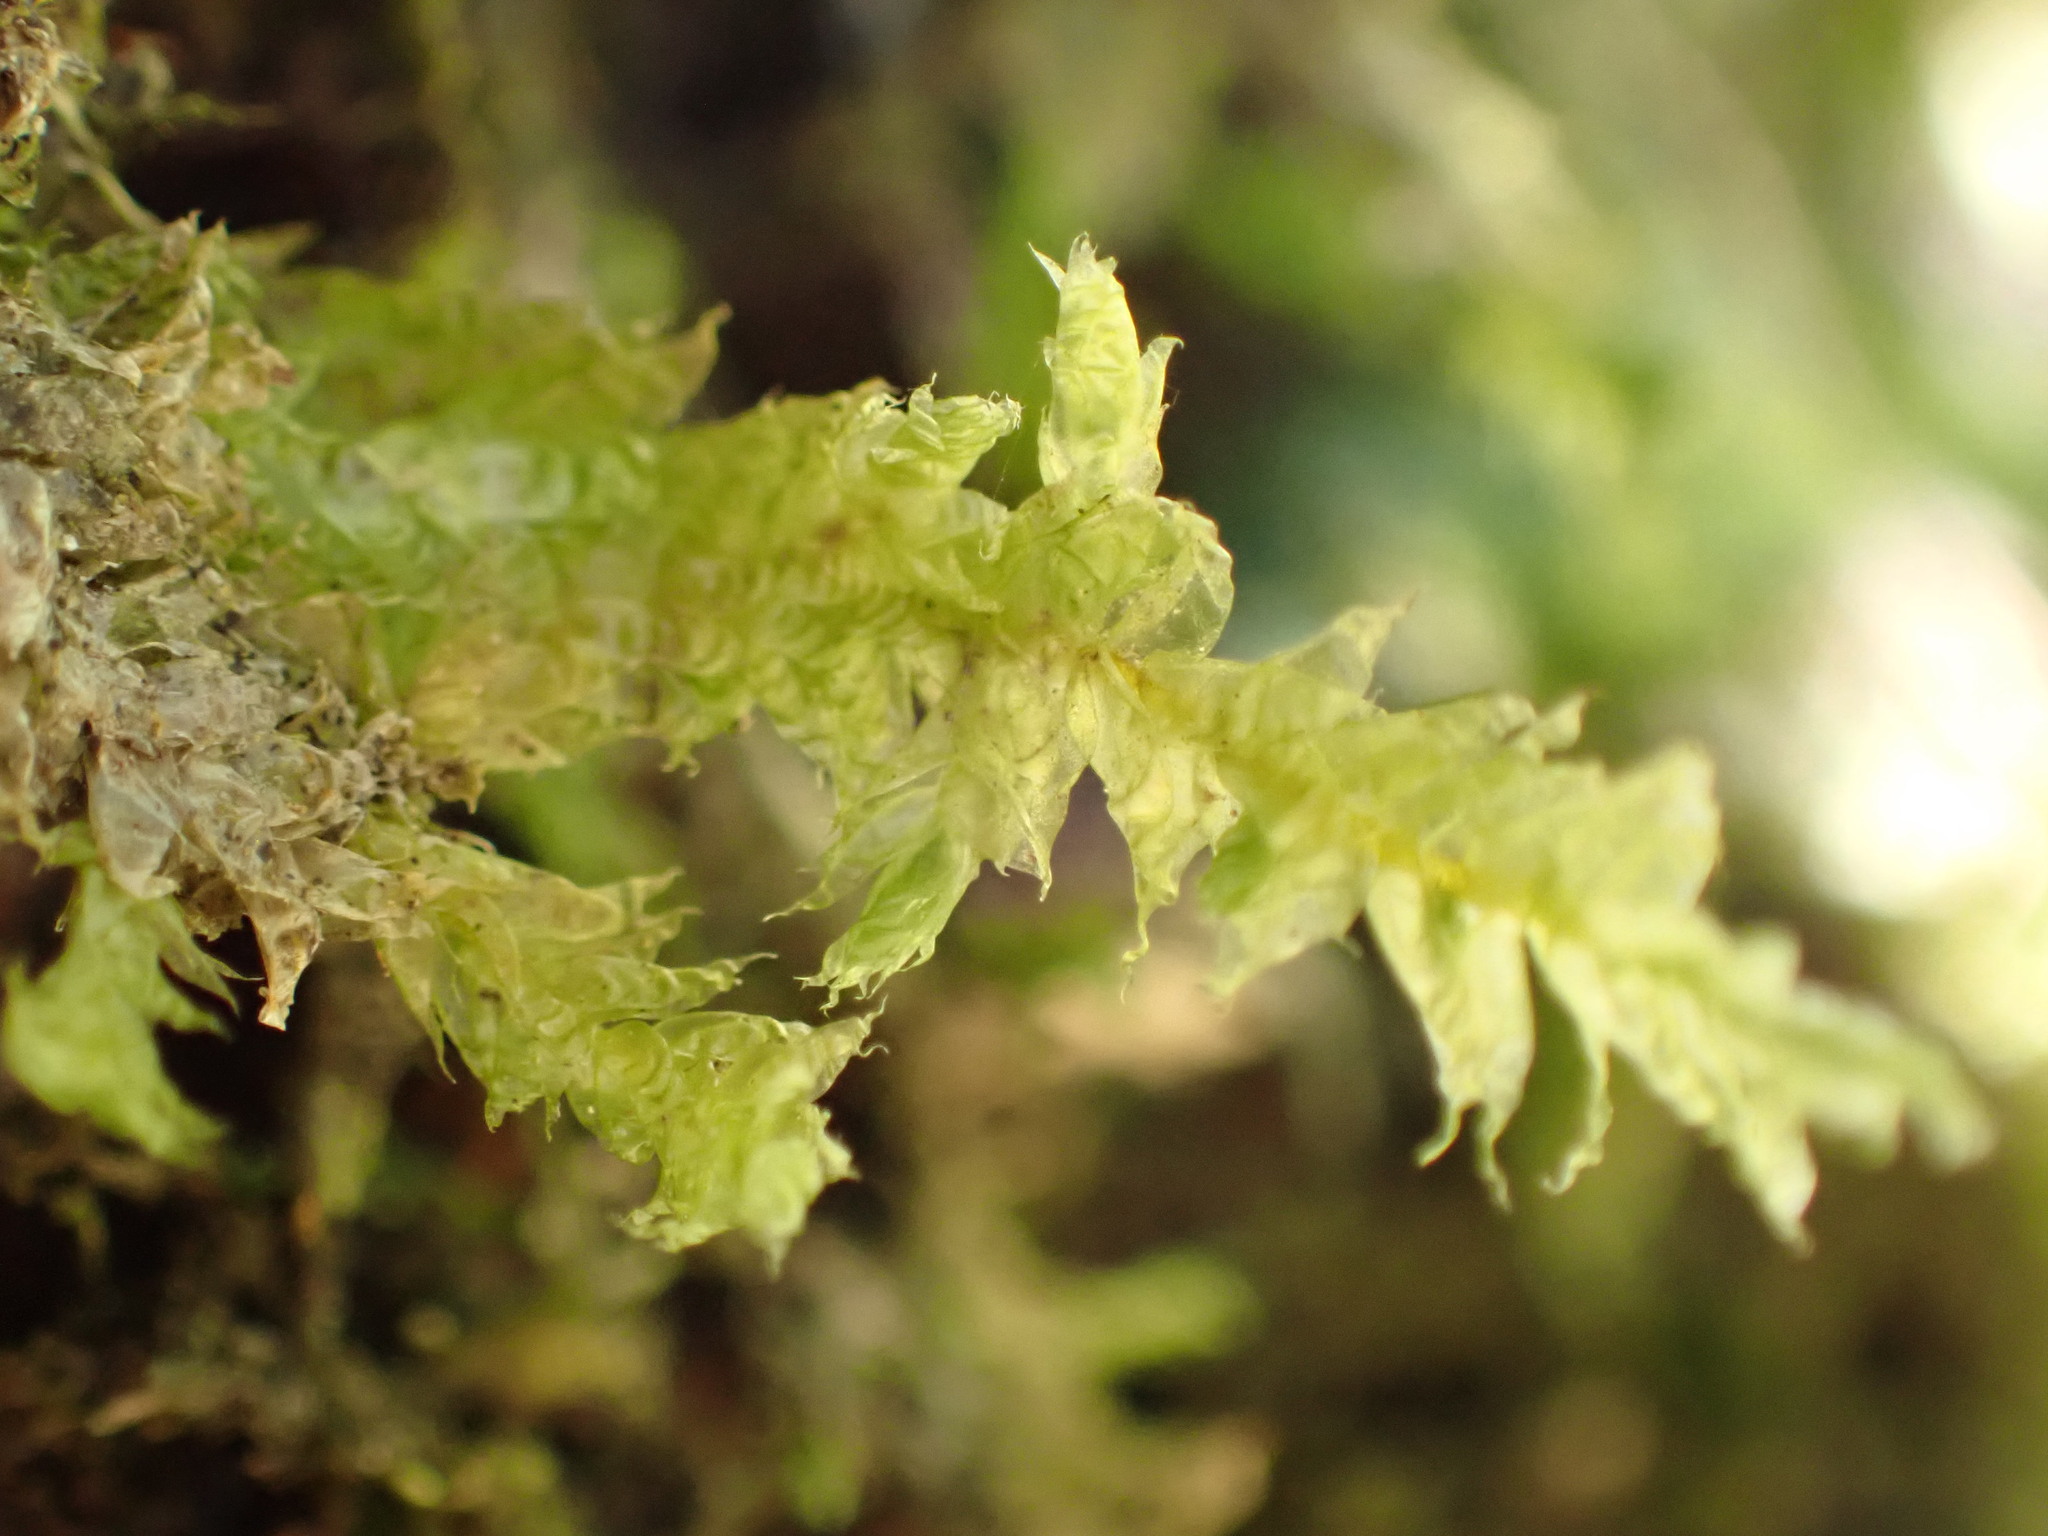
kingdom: Plantae
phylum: Bryophyta
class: Bryopsida
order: Hypnales
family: Neckeraceae
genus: Alleniella
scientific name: Alleniella hymenodonta
